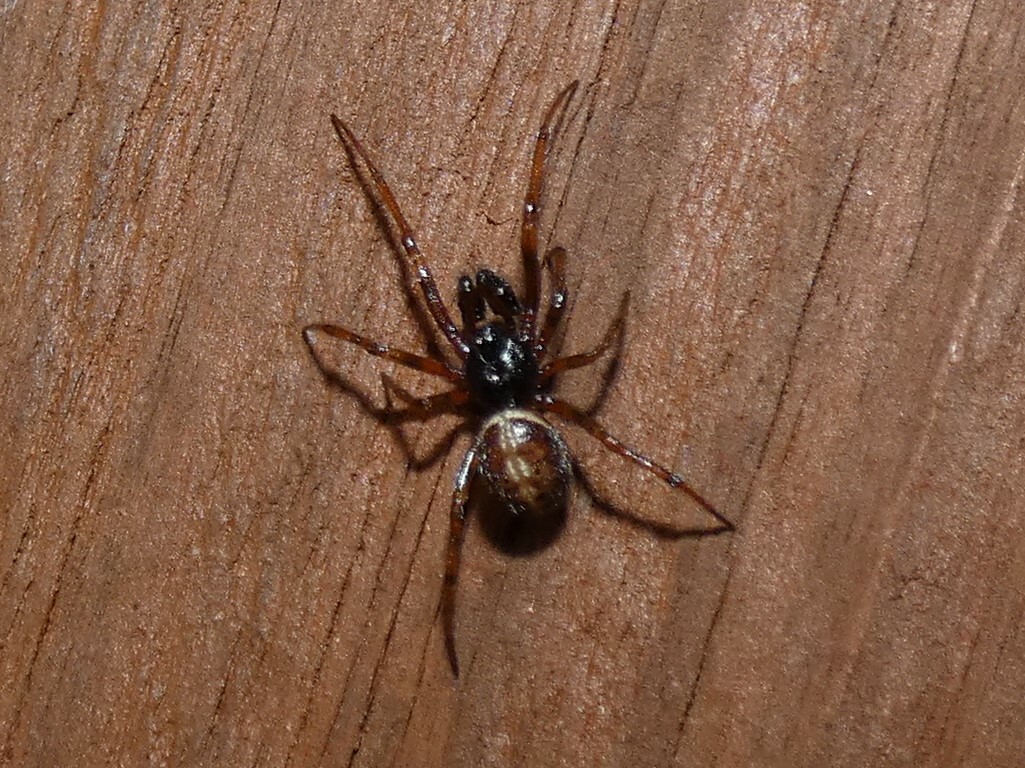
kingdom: Animalia
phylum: Arthropoda
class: Arachnida
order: Araneae
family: Theridiidae
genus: Steatoda
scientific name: Steatoda bipunctata
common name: False widow
